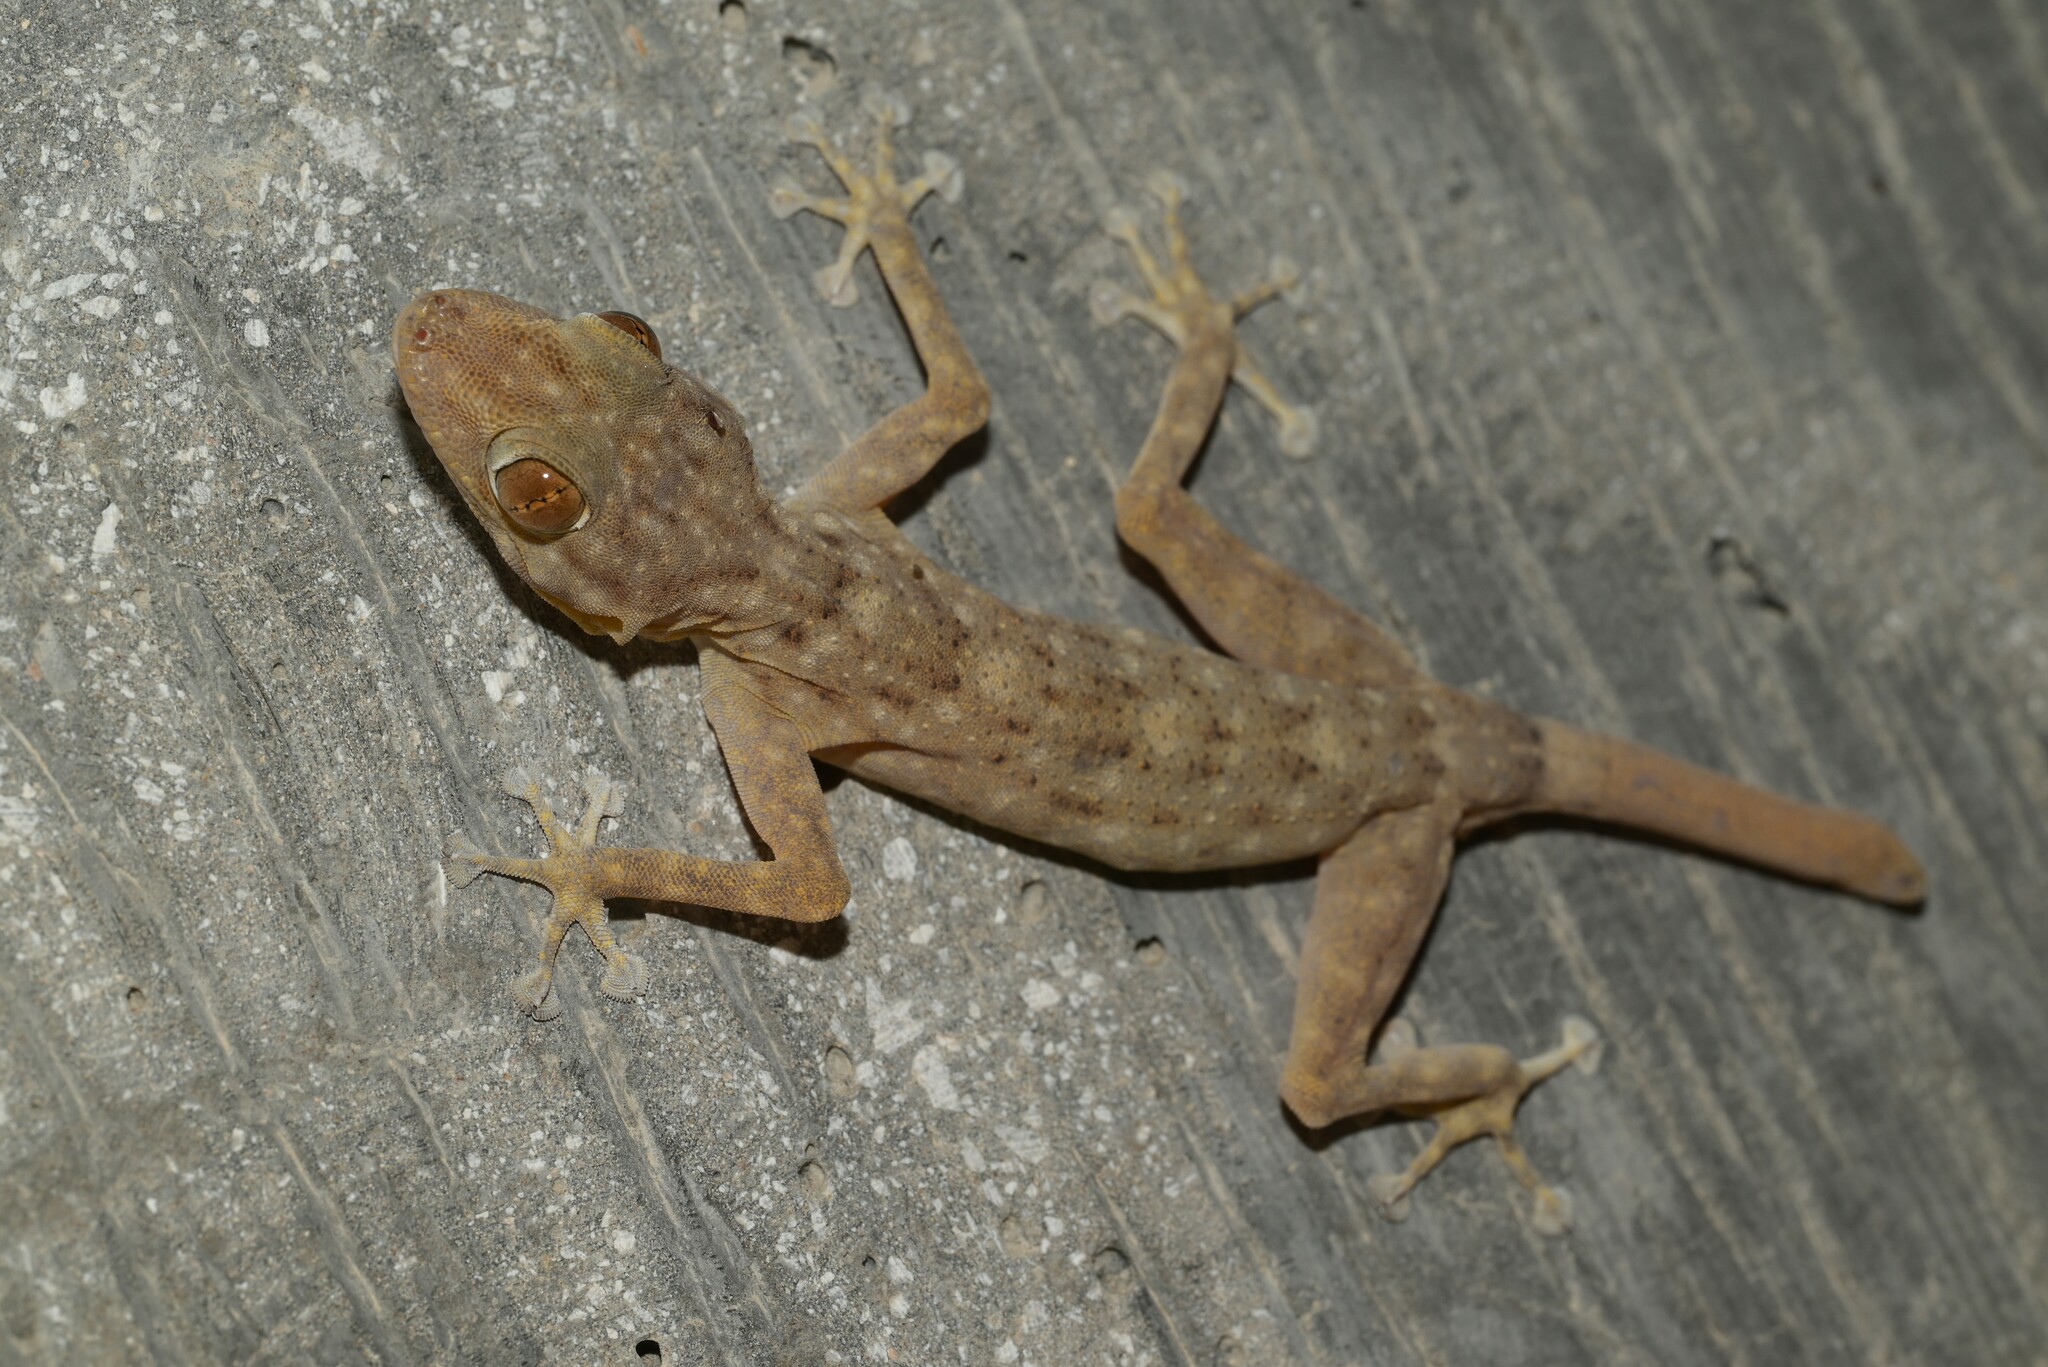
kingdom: Animalia
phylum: Chordata
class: Squamata
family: Phyllodactylidae
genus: Ptyodactylus
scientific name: Ptyodactylus orlovi
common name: Orlov's fan-footed gecko
